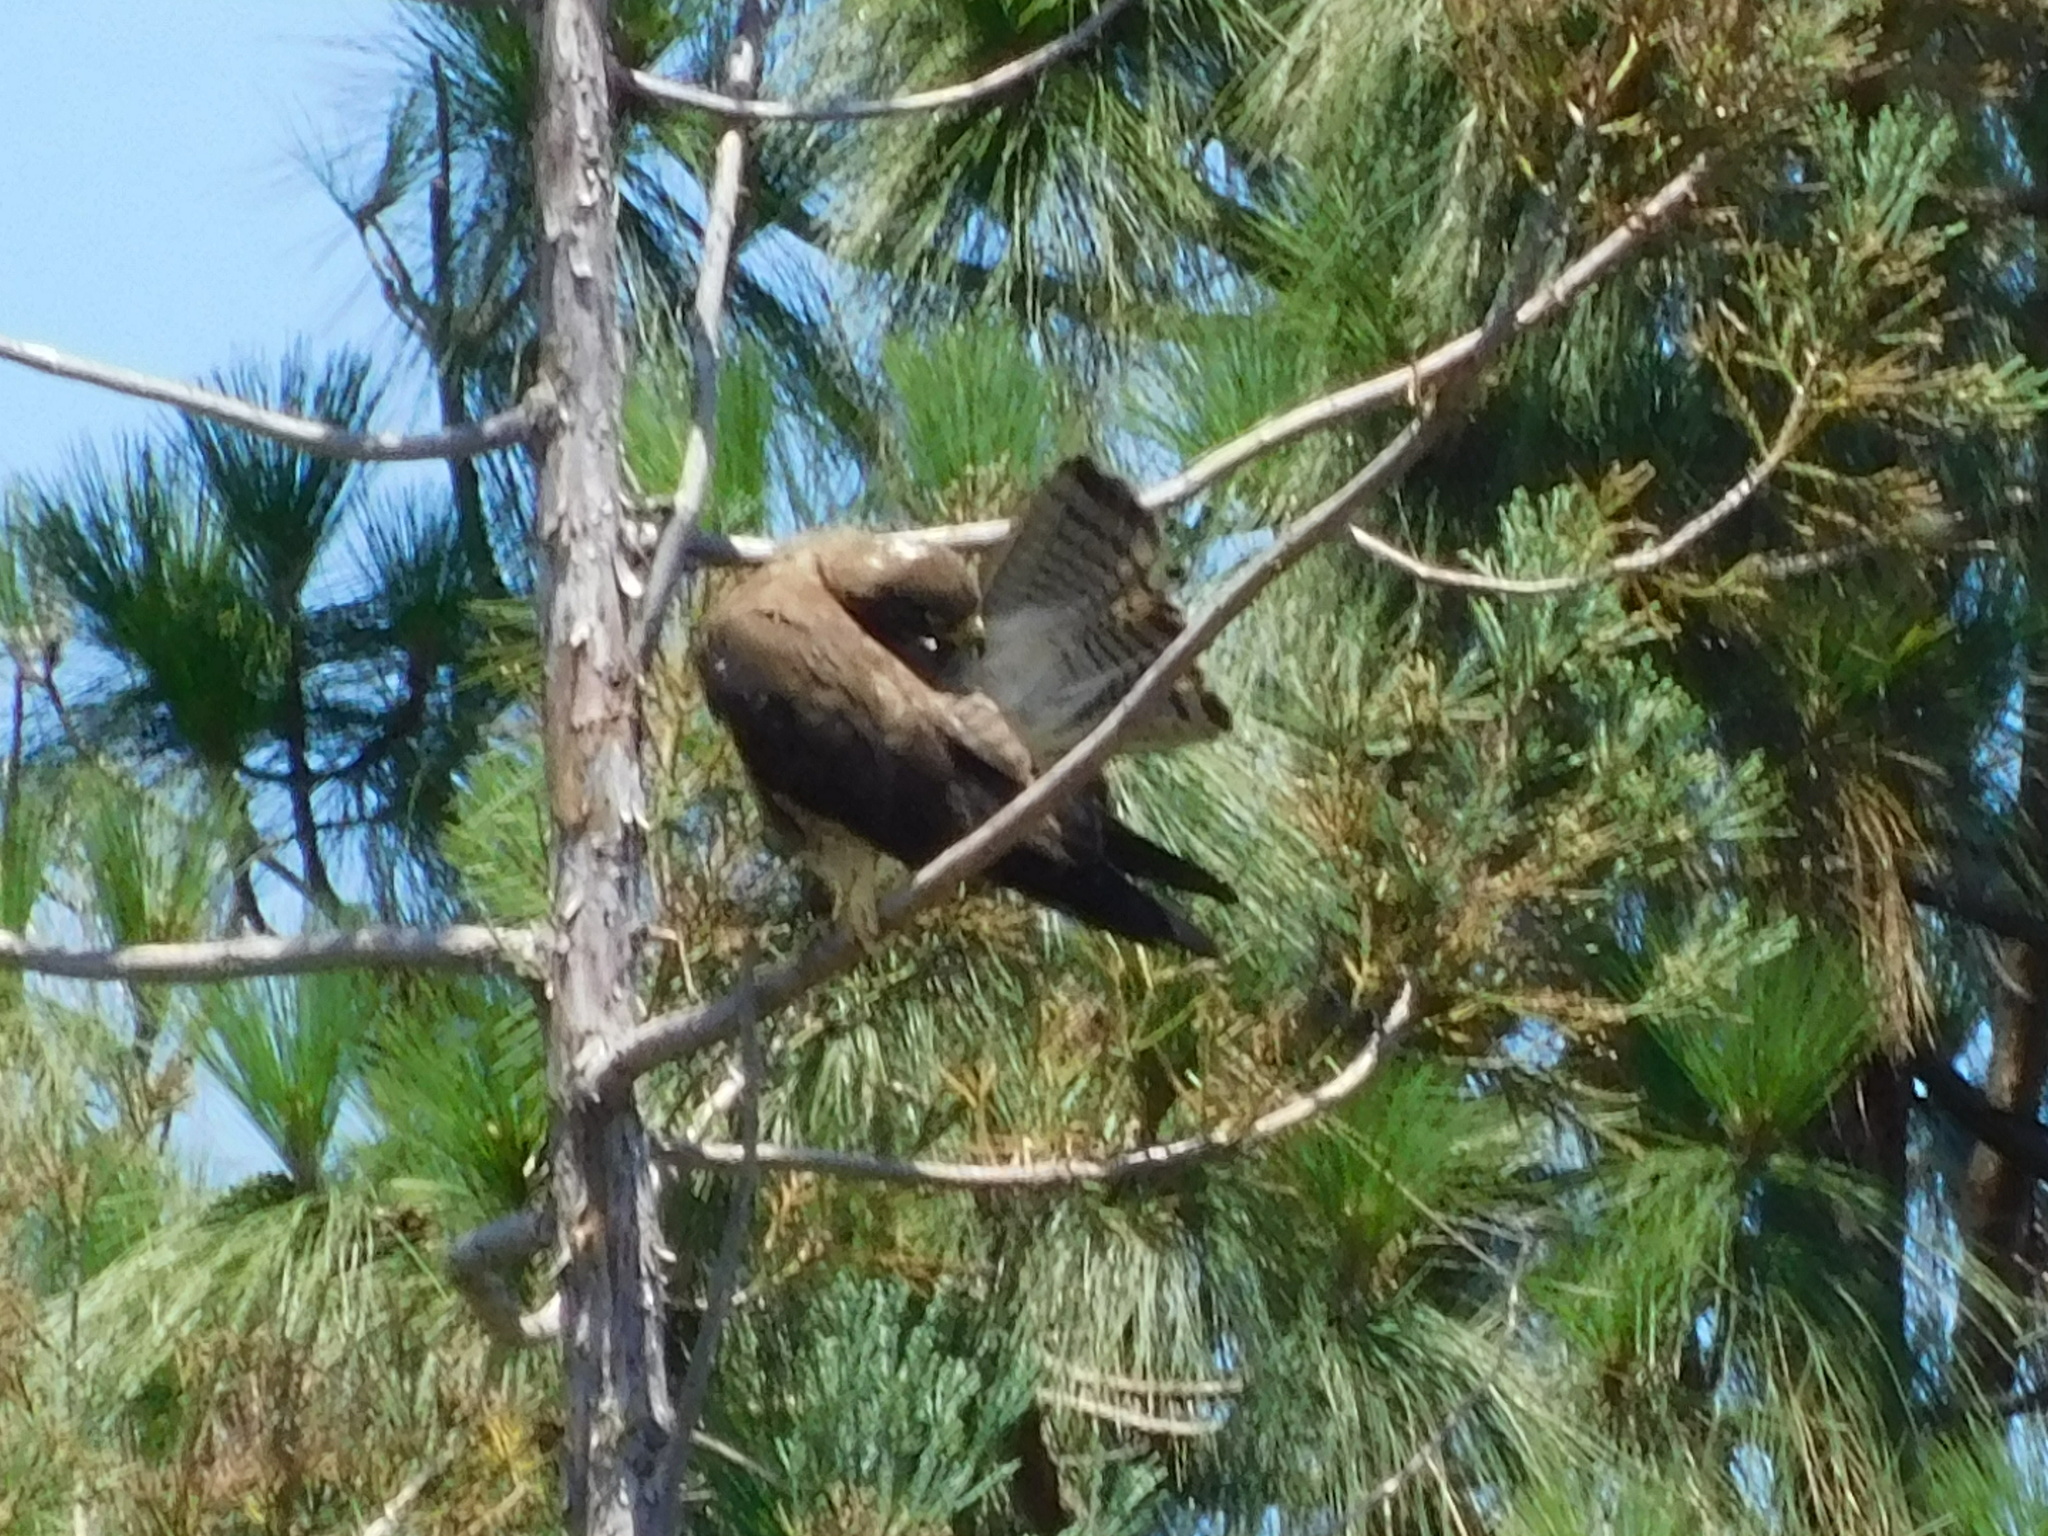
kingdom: Animalia
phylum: Chordata
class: Aves
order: Accipitriformes
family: Accipitridae
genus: Buteo
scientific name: Buteo swainsoni
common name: Swainson's hawk
